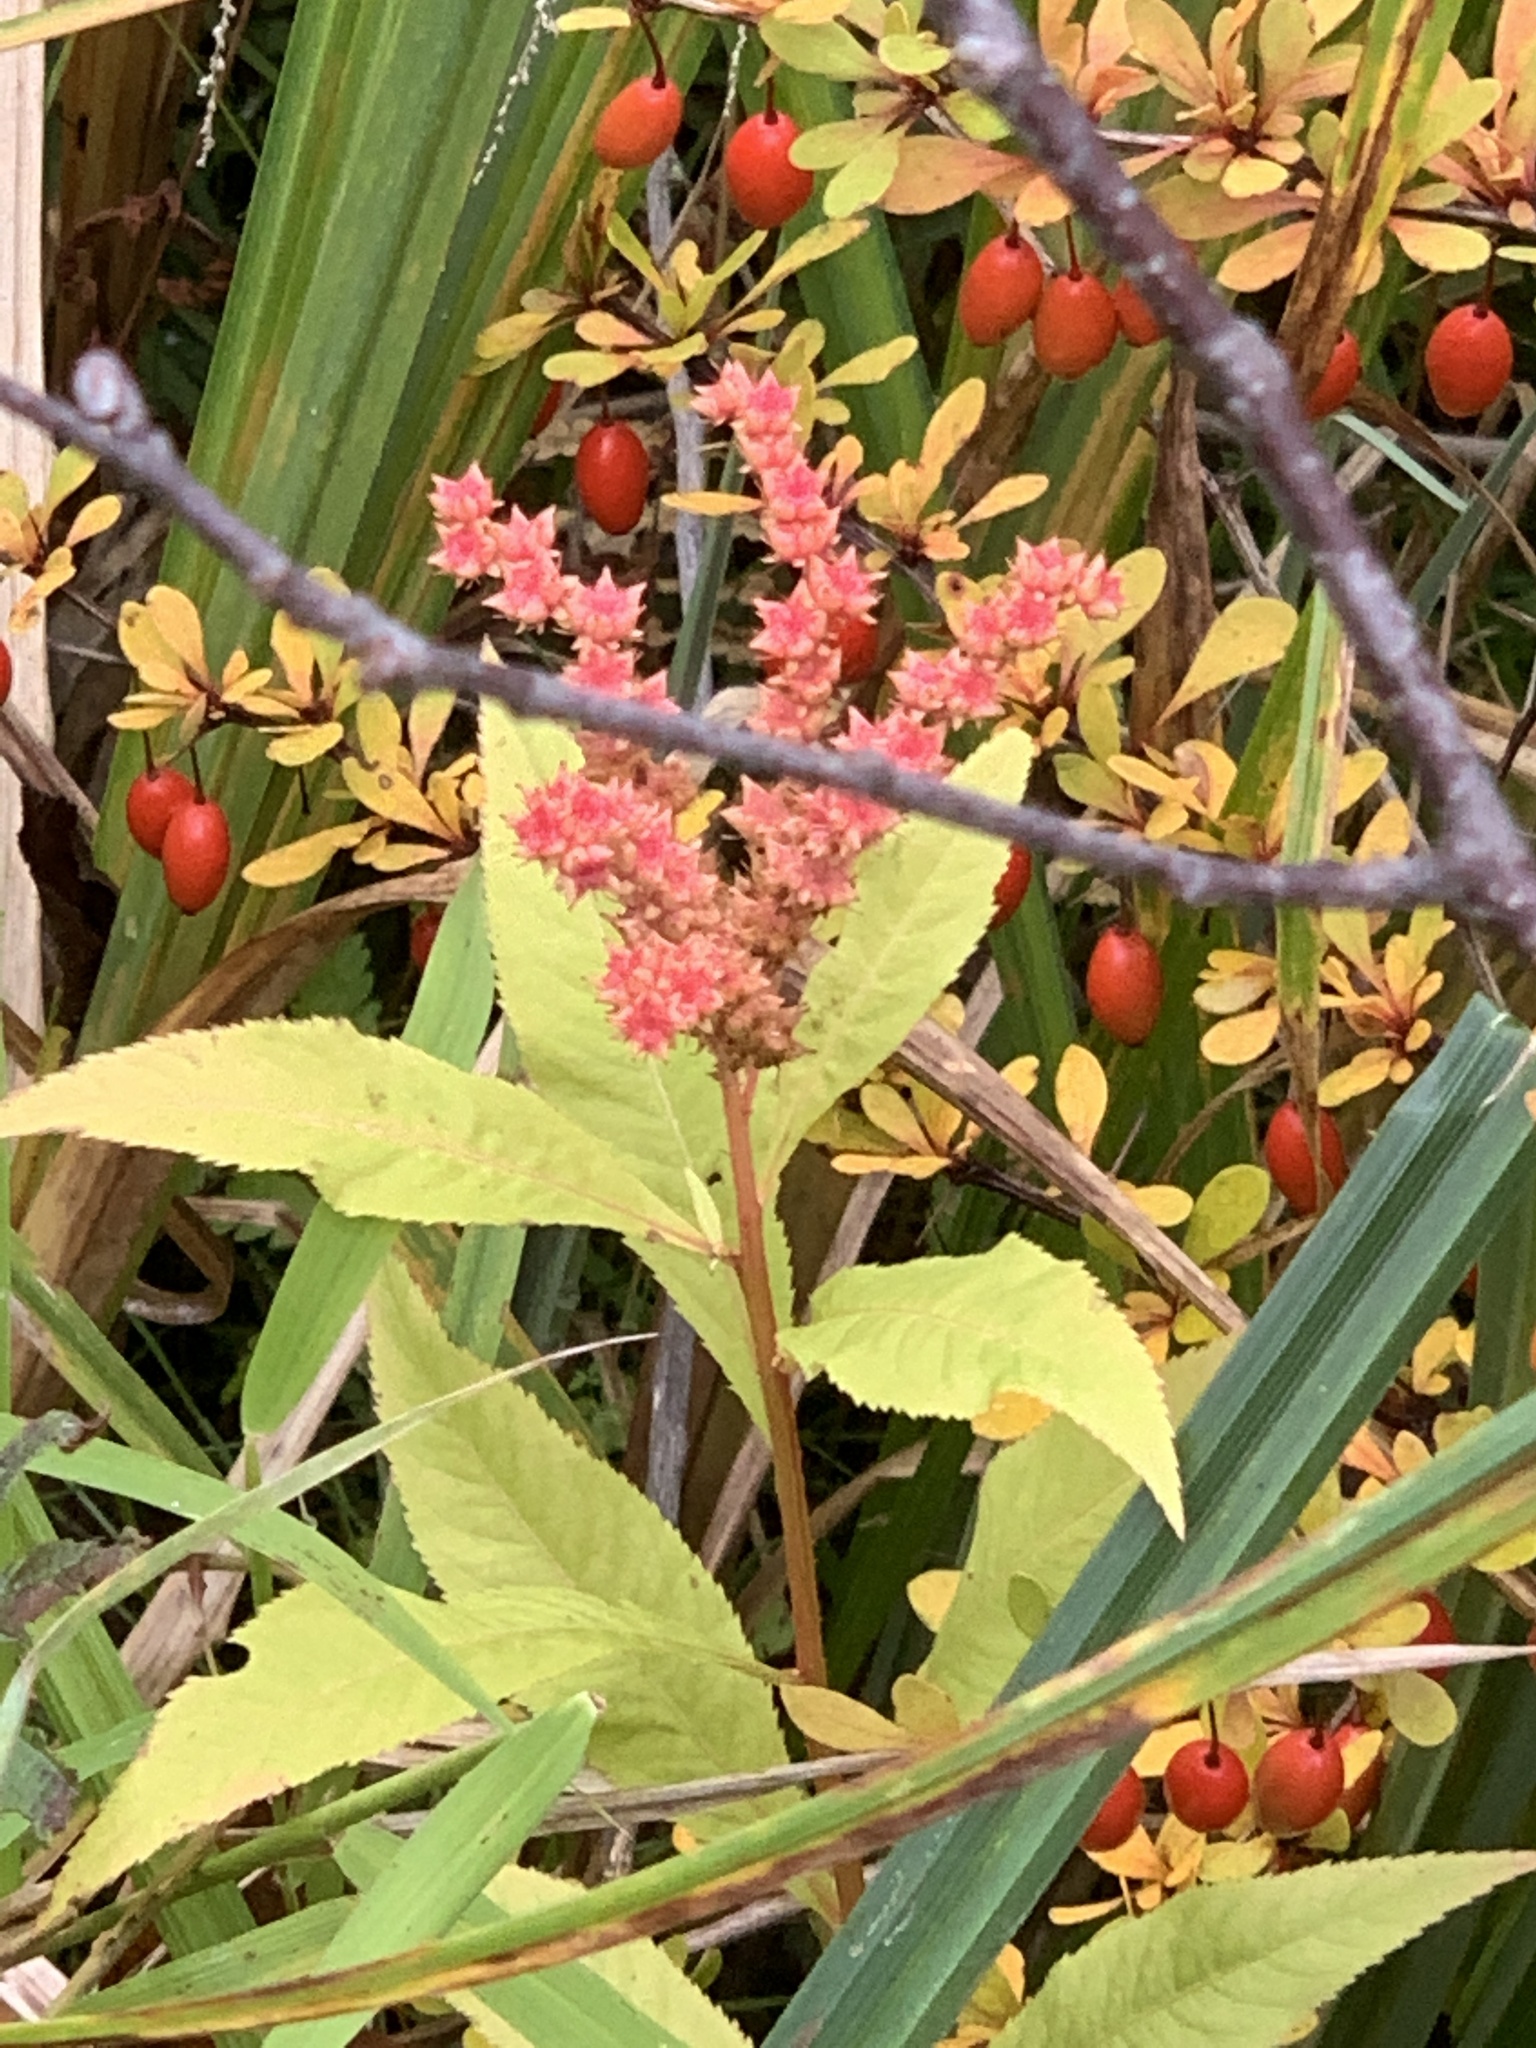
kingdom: Plantae
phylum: Tracheophyta
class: Magnoliopsida
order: Saxifragales
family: Penthoraceae
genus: Penthorum
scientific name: Penthorum sedoides
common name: Ditch stonecrop
